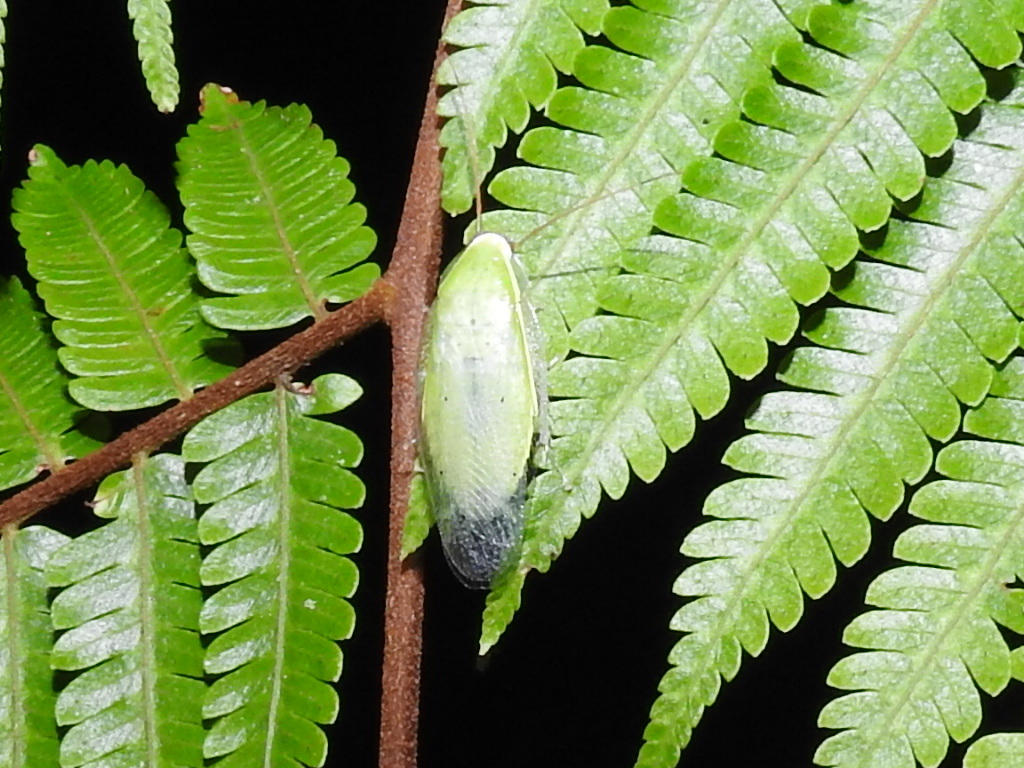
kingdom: Animalia
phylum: Arthropoda
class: Insecta
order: Blattodea
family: Blaberidae
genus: Panchlora
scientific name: Panchlora nivea
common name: Cuban cockroach
